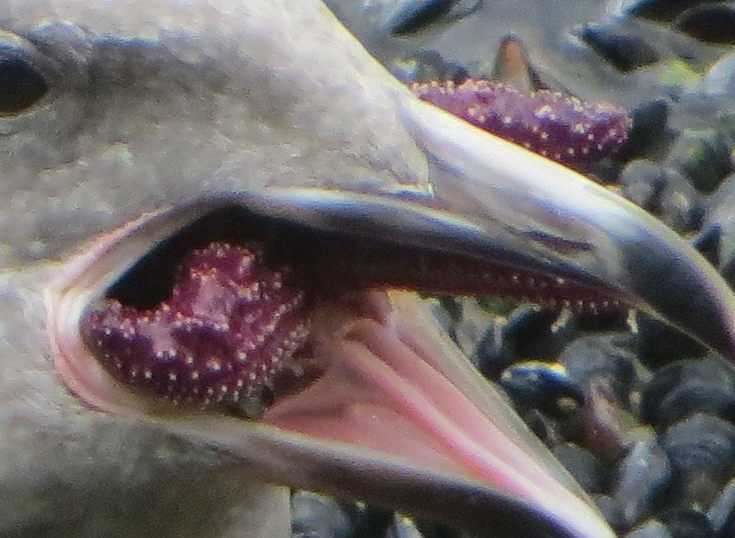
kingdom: Animalia
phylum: Echinodermata
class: Asteroidea
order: Forcipulatida
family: Asteriidae
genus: Pisaster
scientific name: Pisaster ochraceus
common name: Ochre stars
